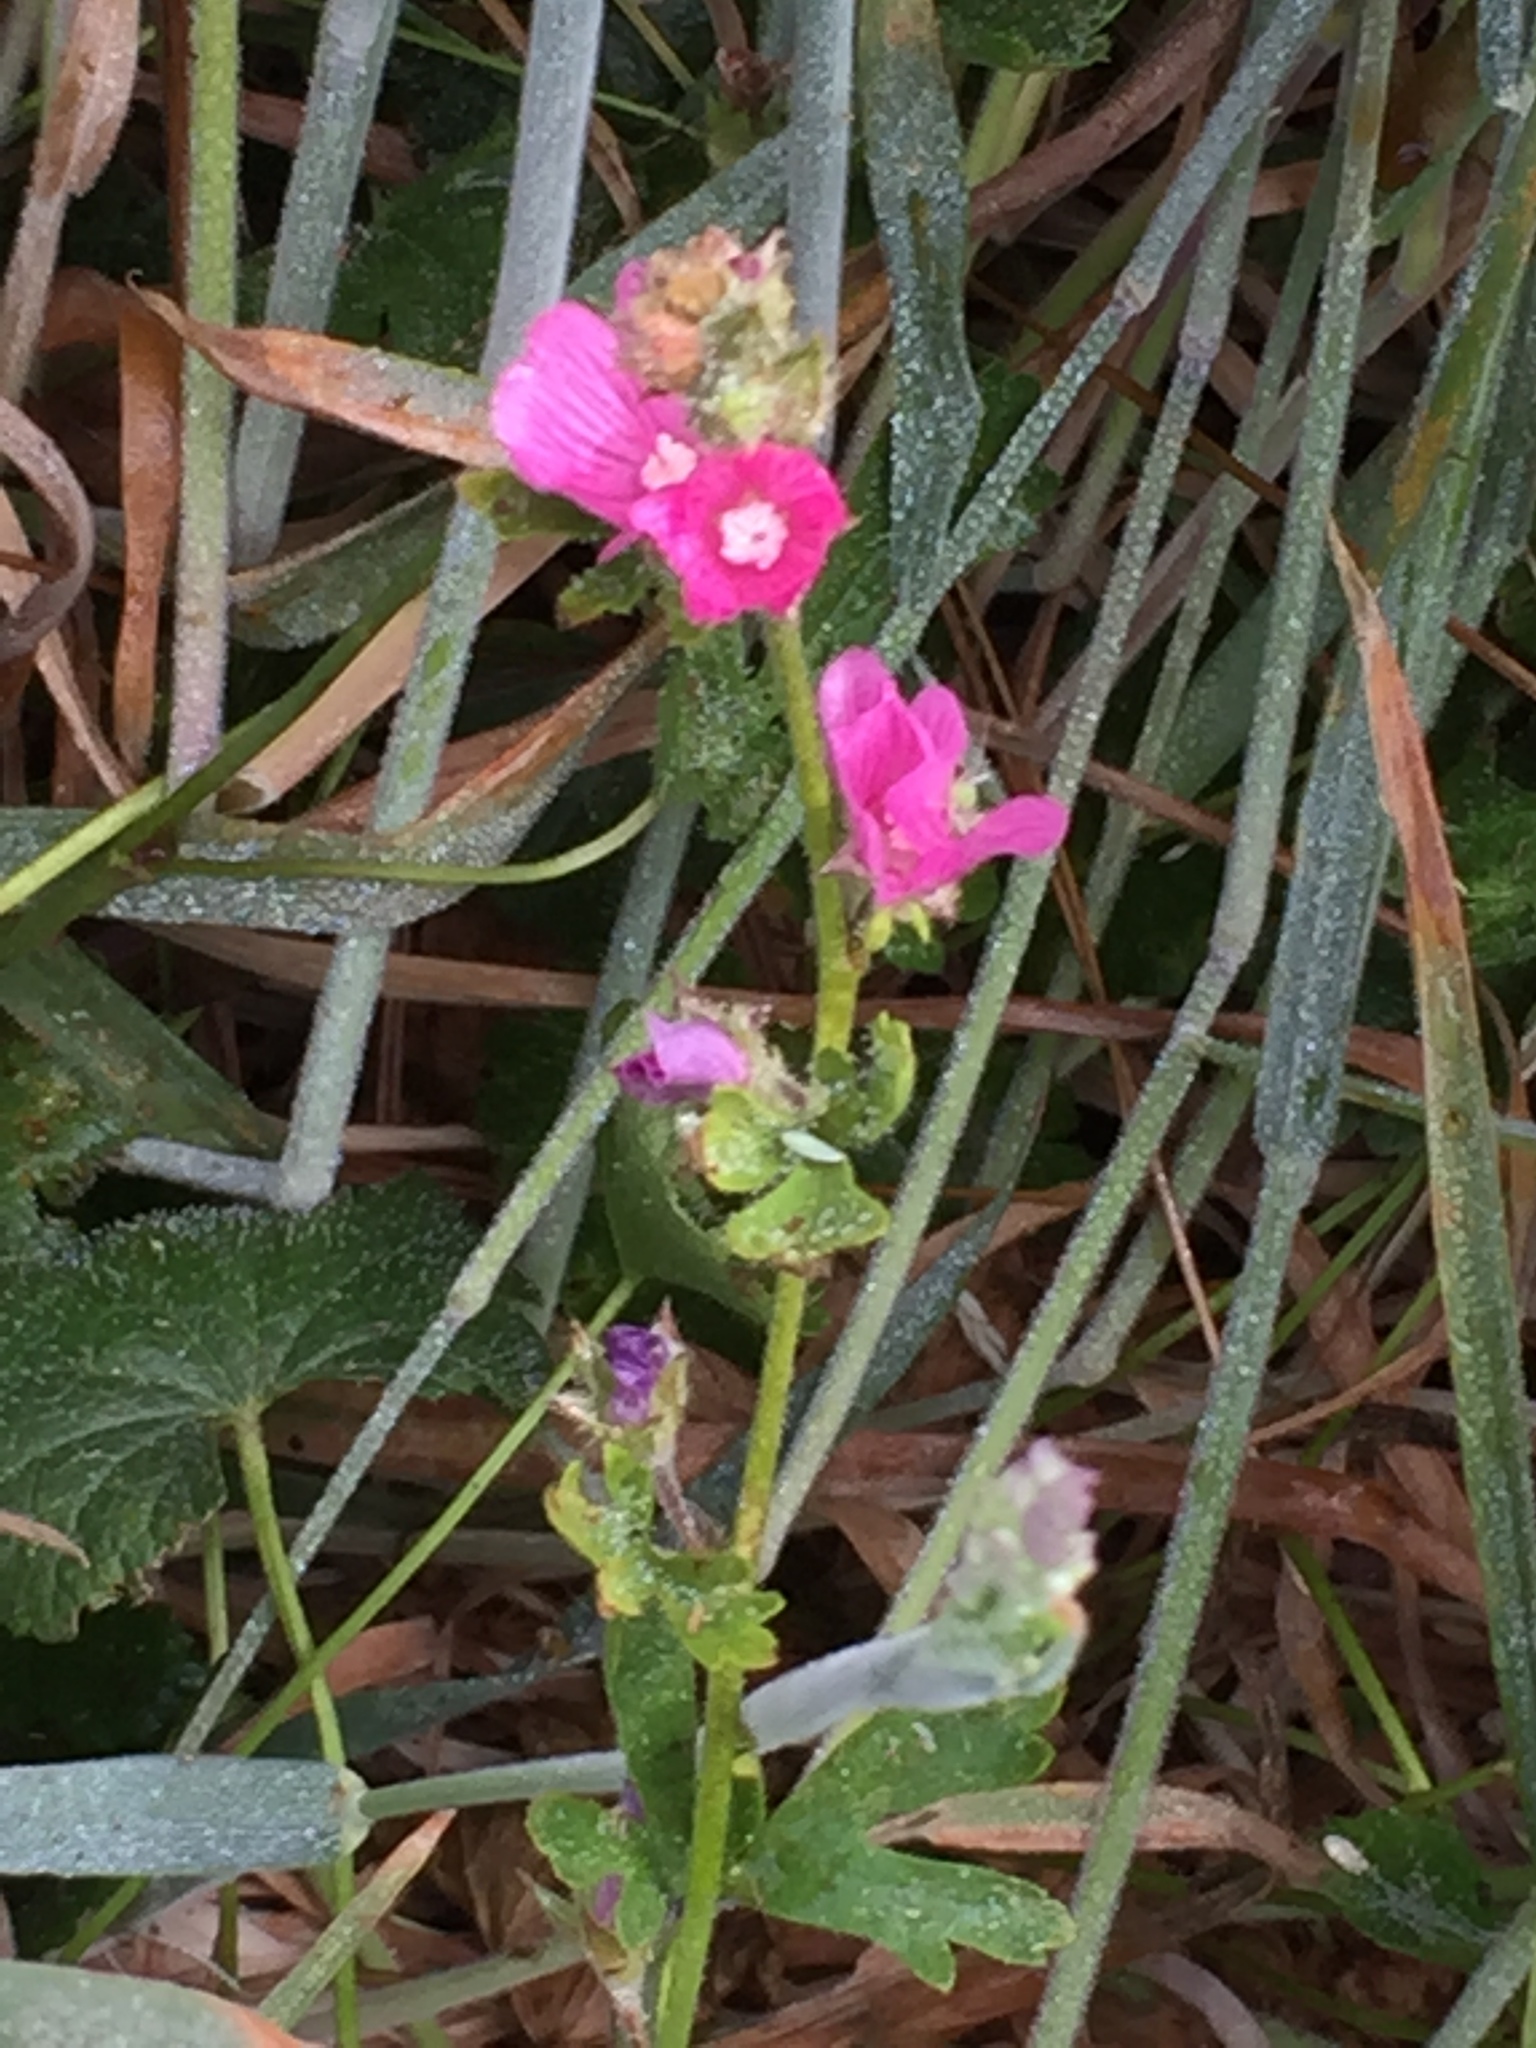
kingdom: Plantae
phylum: Tracheophyta
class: Magnoliopsida
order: Malvales
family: Malvaceae
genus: Sidalcea
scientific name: Sidalcea malviflora
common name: Greek mallow
